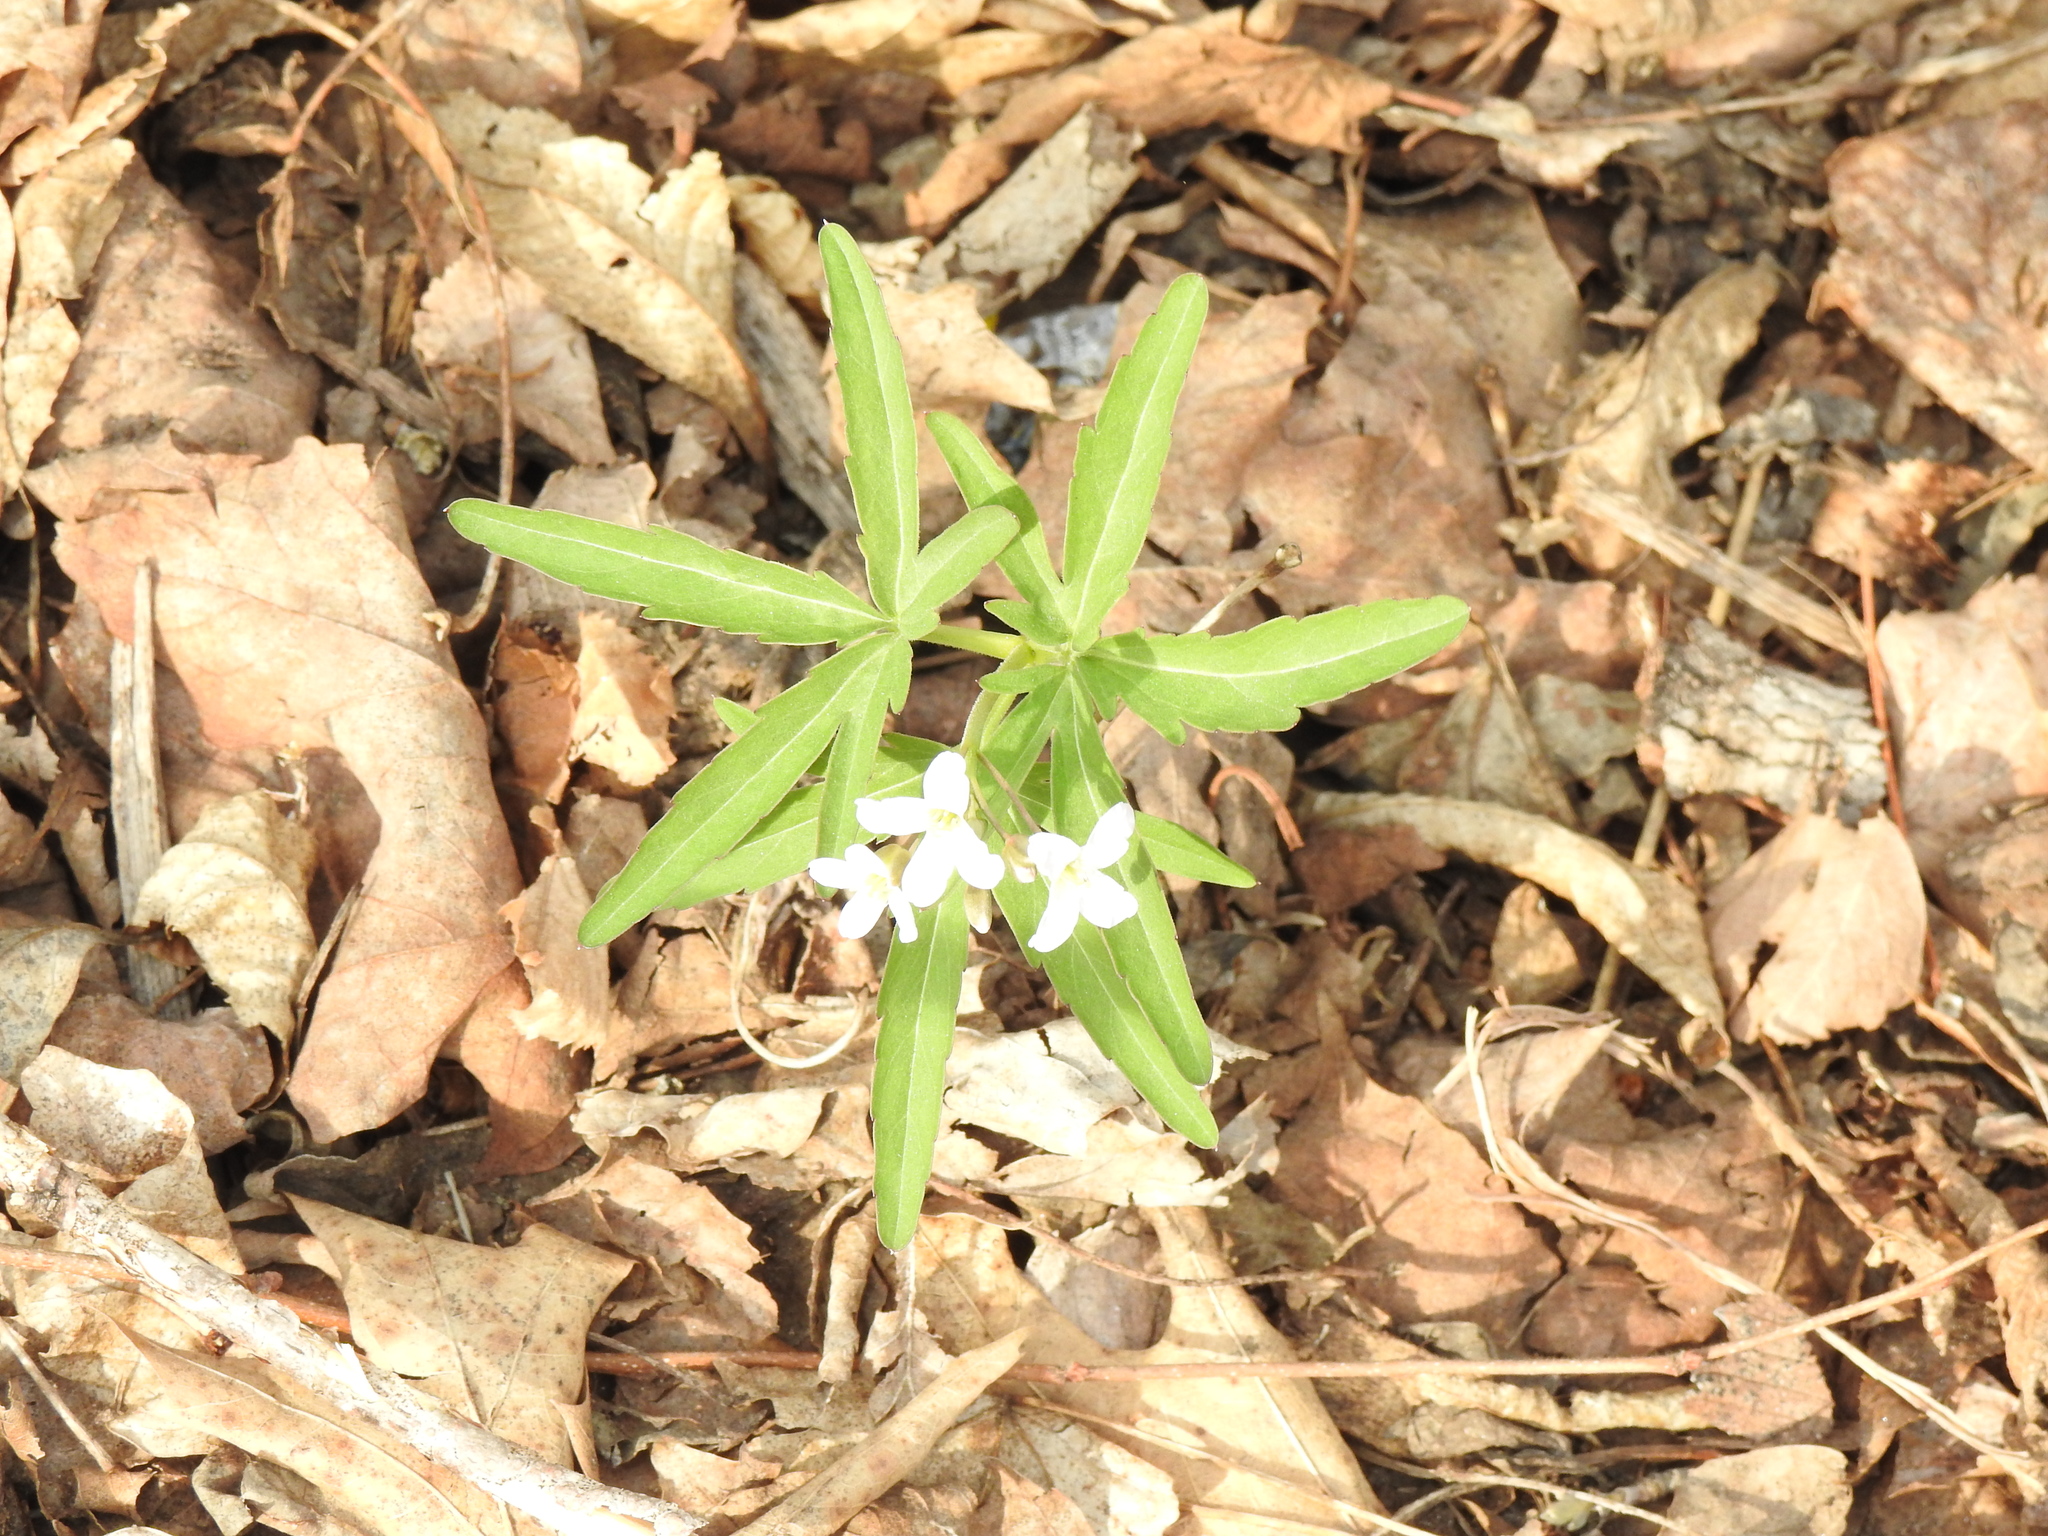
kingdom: Plantae
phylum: Tracheophyta
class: Magnoliopsida
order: Brassicales
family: Brassicaceae
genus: Cardamine
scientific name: Cardamine concatenata
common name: Cut-leaf toothcup
